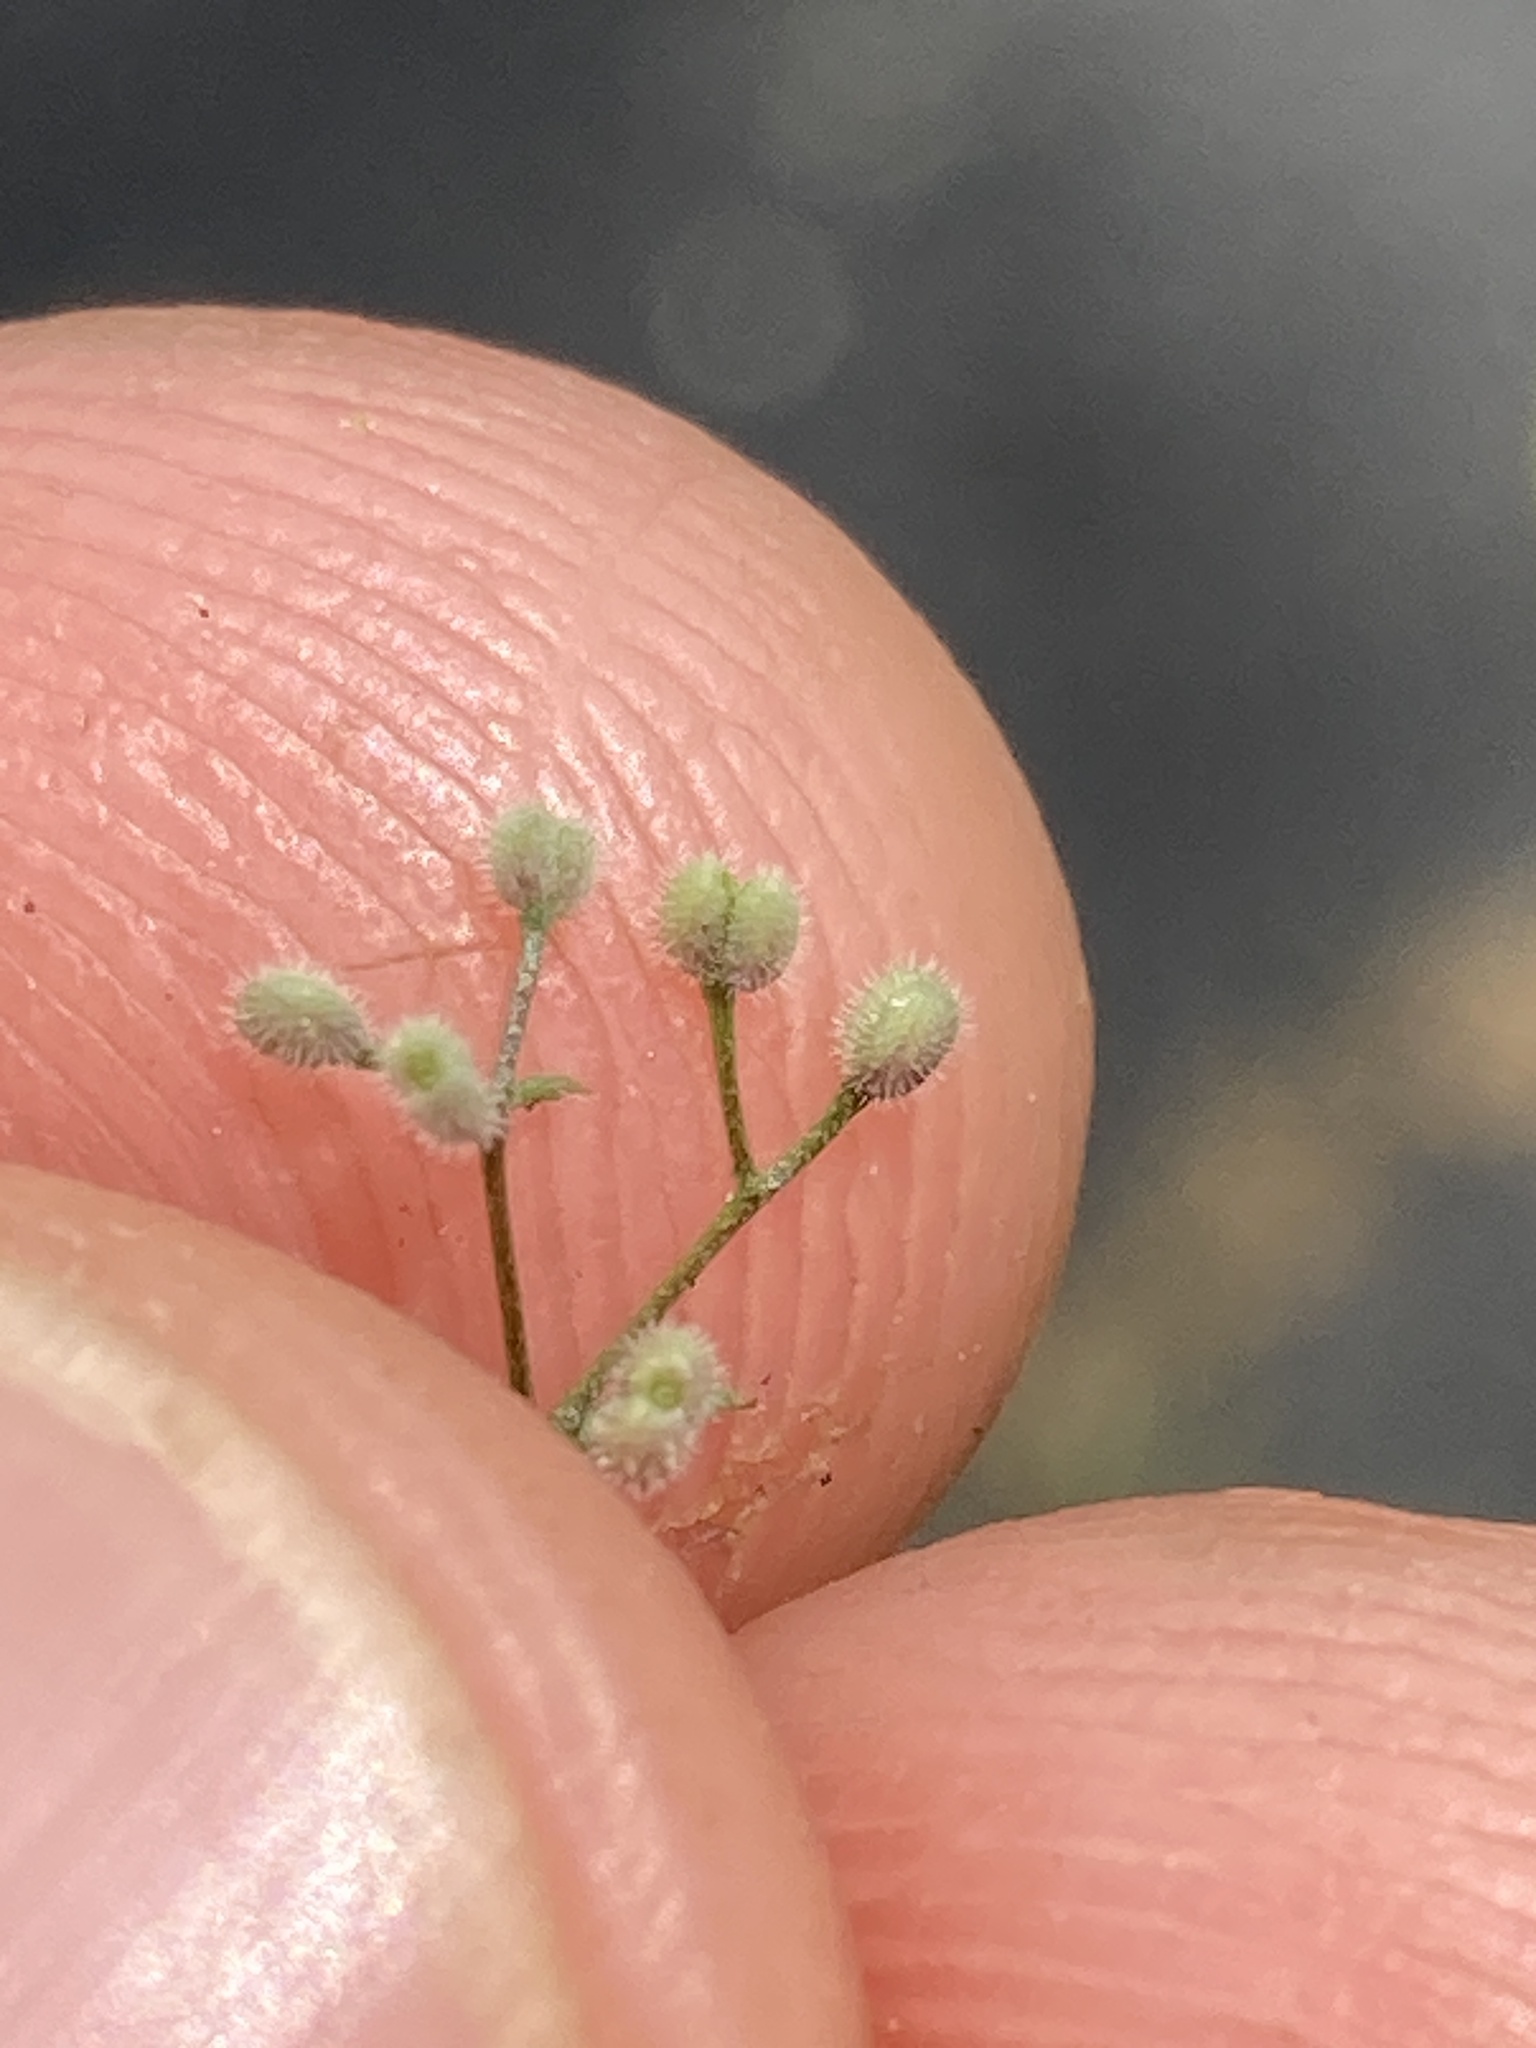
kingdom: Plantae
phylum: Tracheophyta
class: Magnoliopsida
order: Gentianales
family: Rubiaceae
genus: Galium
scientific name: Galium parisiense
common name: Wall bedstraw
